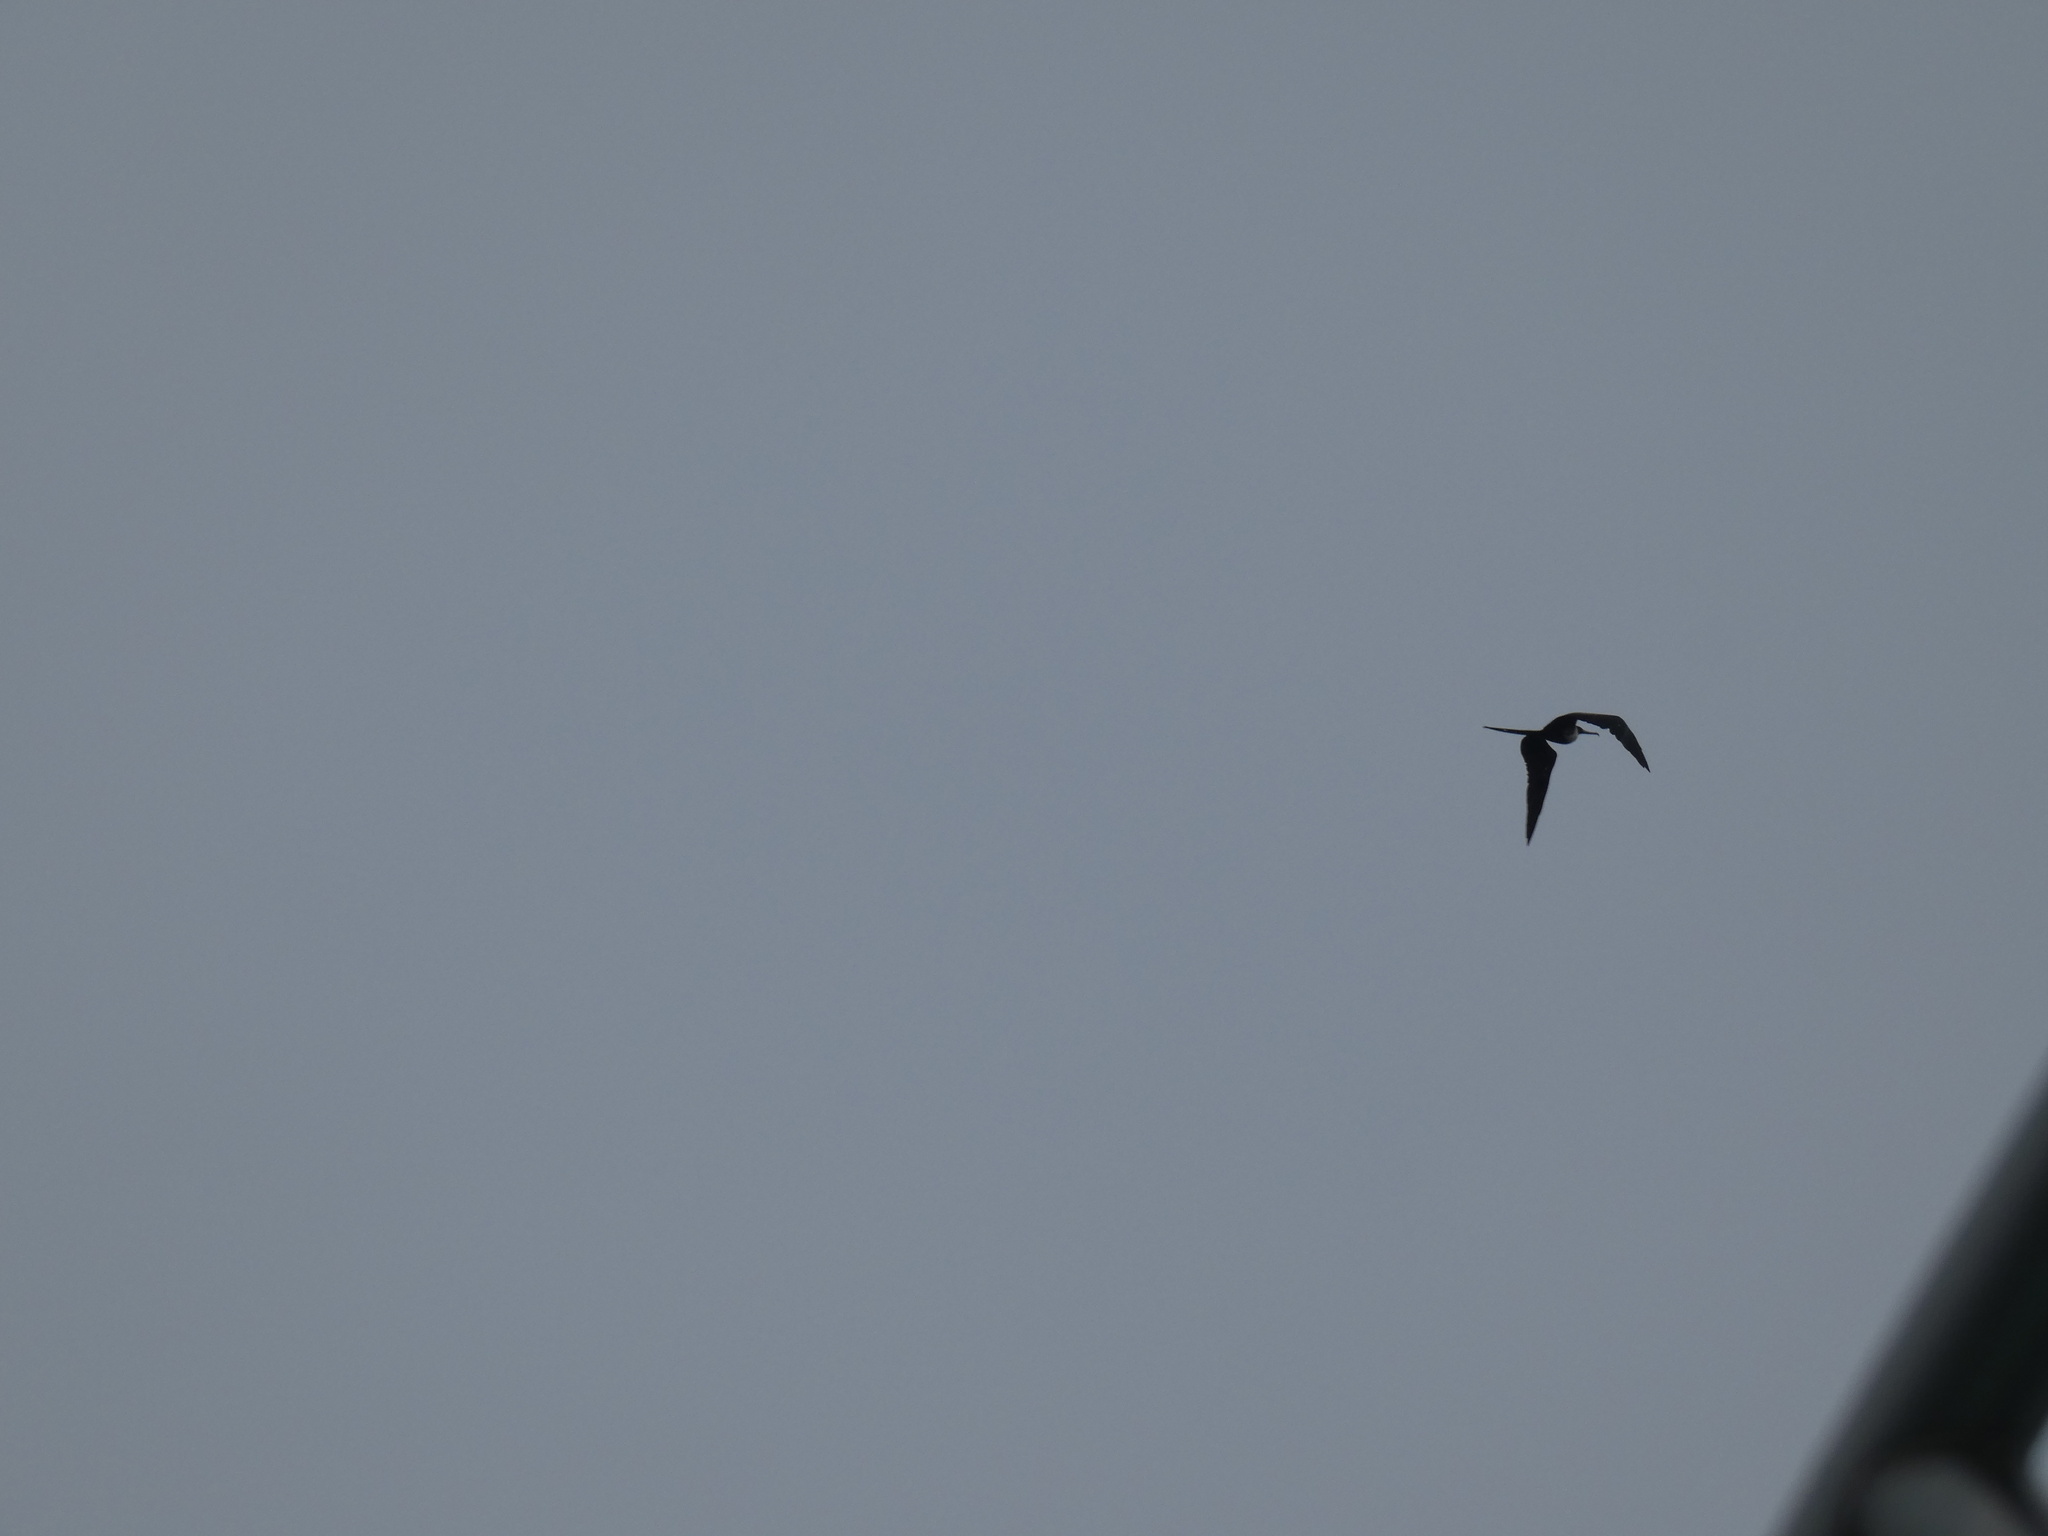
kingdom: Animalia
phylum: Chordata
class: Aves
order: Suliformes
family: Fregatidae
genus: Fregata
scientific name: Fregata magnificens
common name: Magnificent frigatebird
